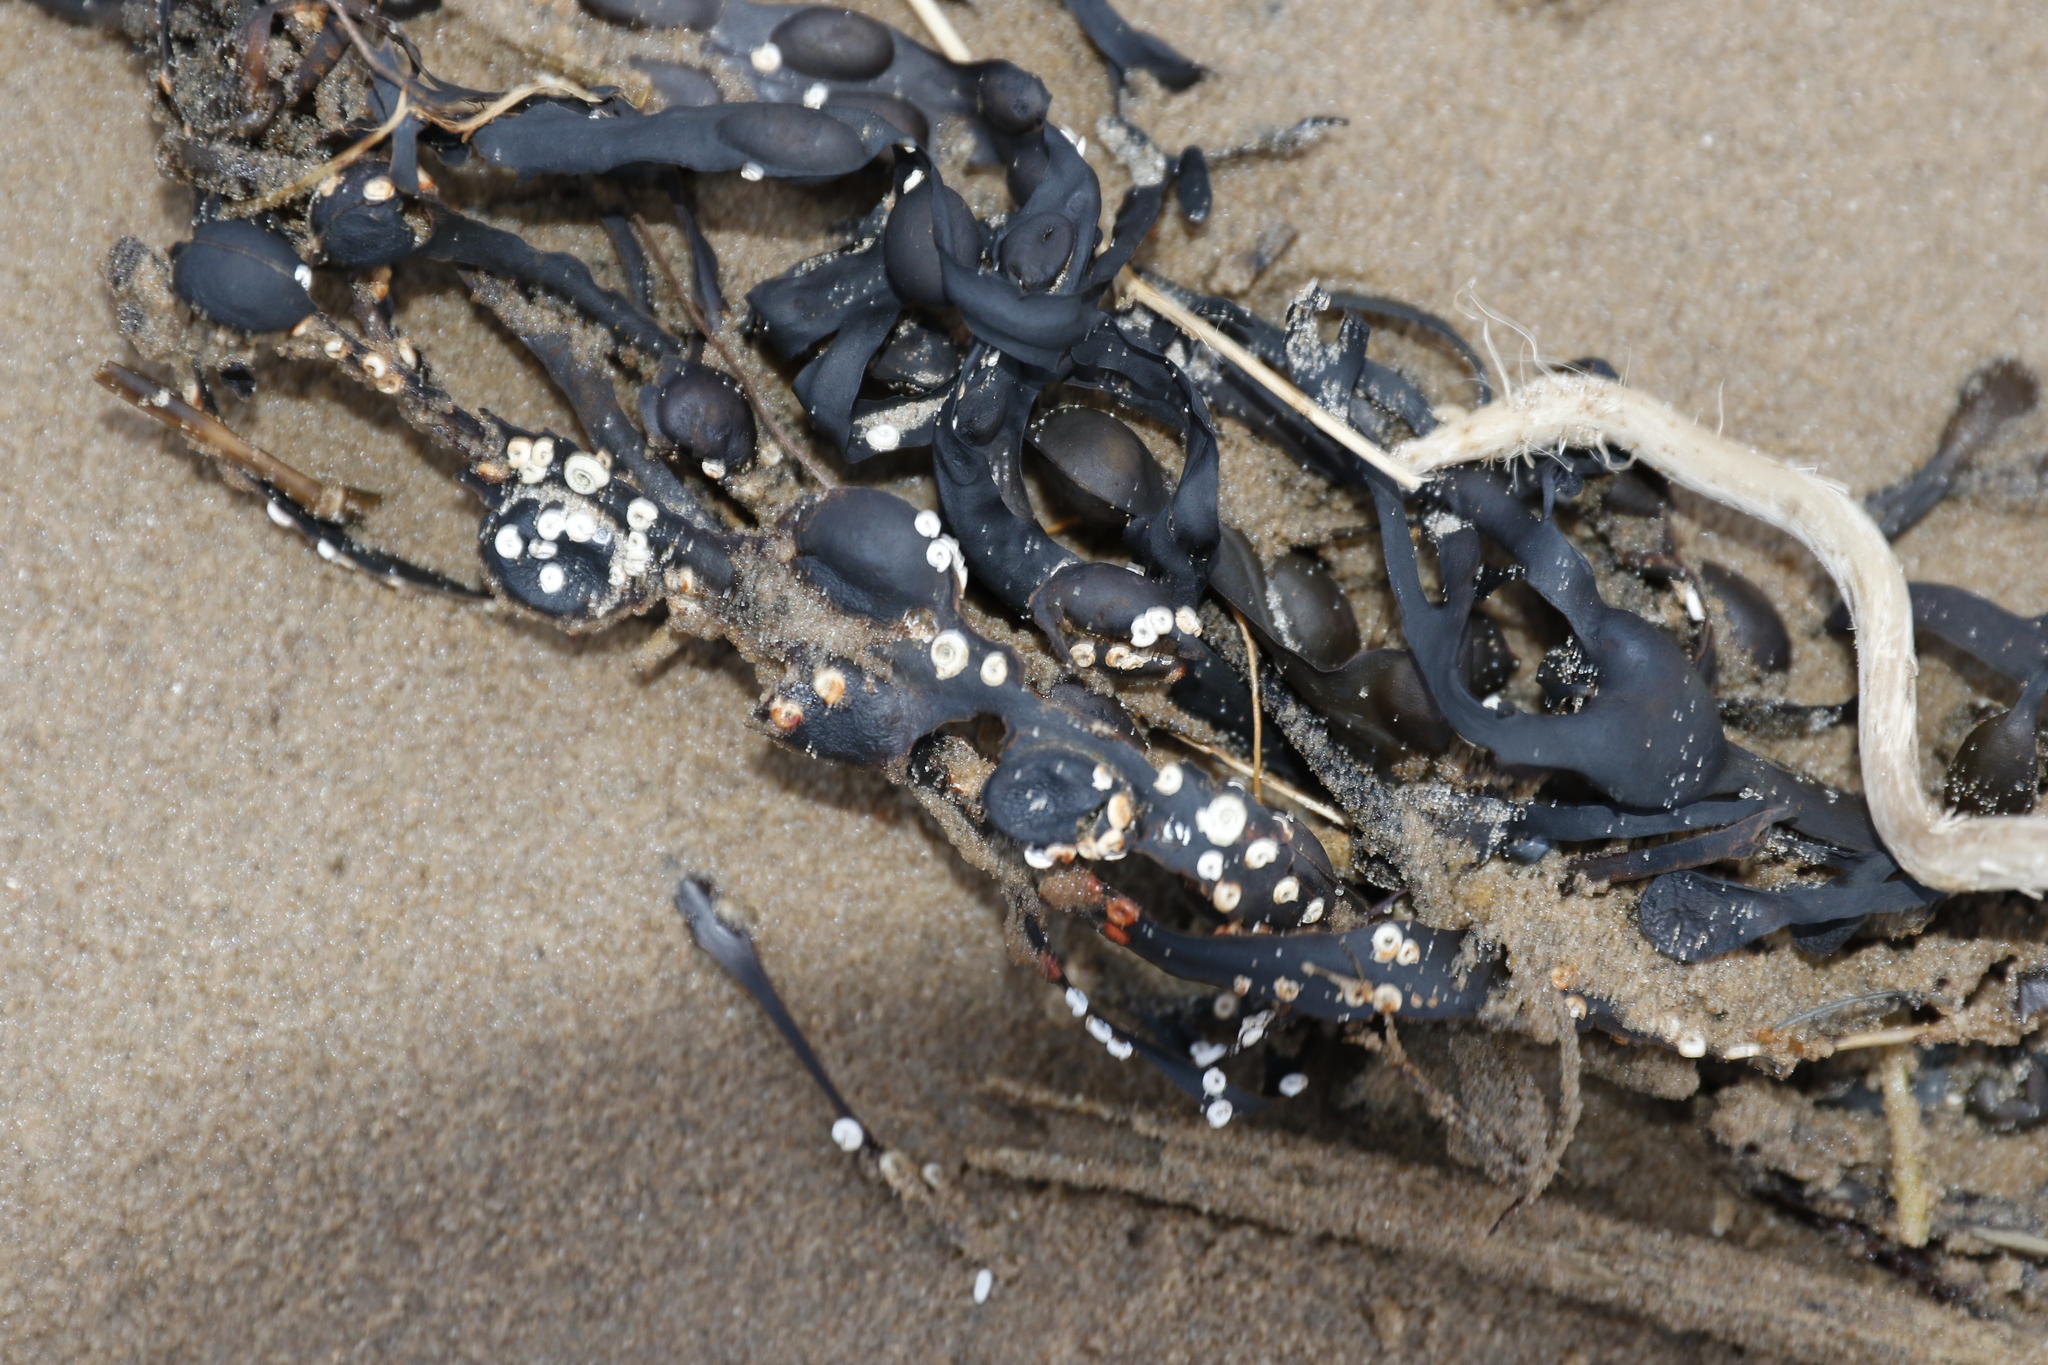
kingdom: Chromista
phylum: Ochrophyta
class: Phaeophyceae
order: Fucales
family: Fucaceae
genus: Fucus
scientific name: Fucus vesiculosus
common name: Bladder wrack
